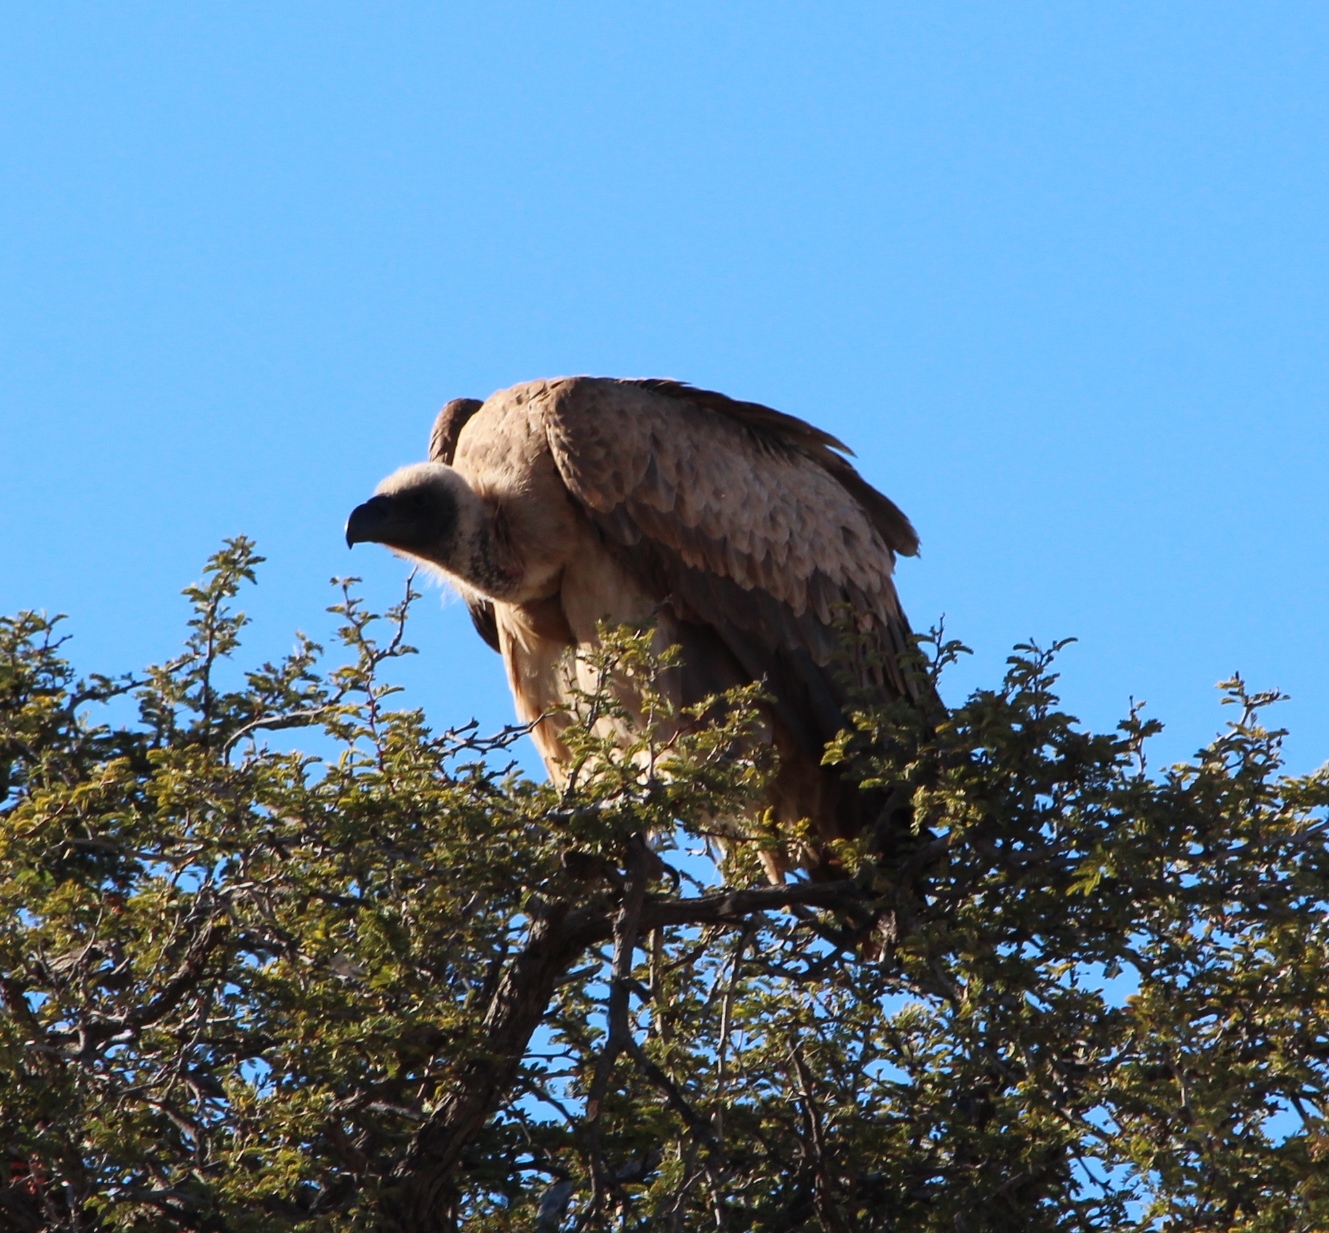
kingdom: Animalia
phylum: Chordata
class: Aves
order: Accipitriformes
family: Accipitridae
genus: Gyps
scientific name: Gyps africanus
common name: White-backed vulture
